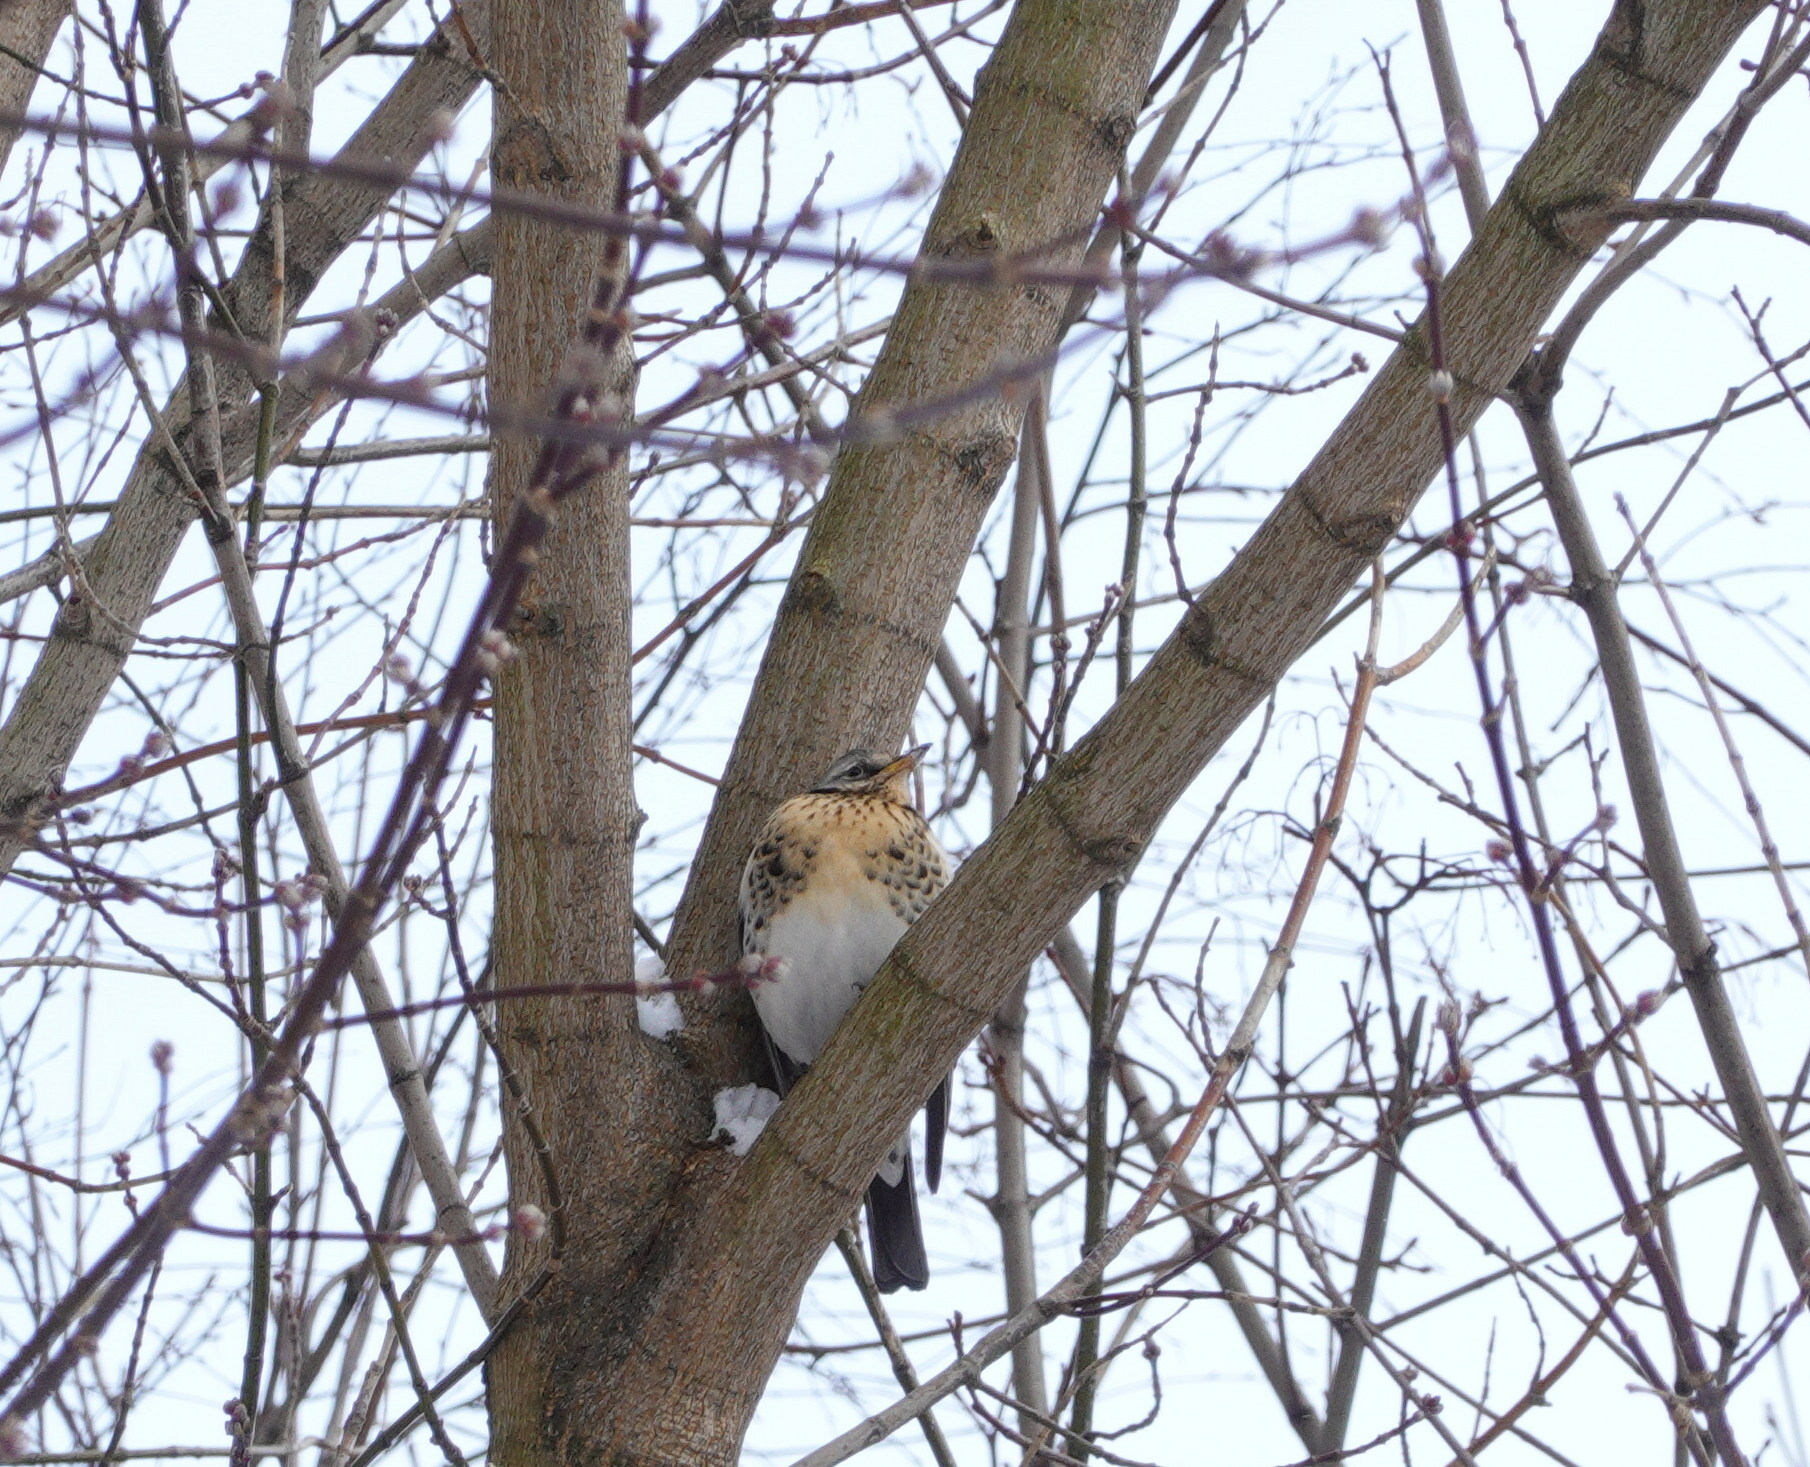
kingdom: Animalia
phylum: Chordata
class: Aves
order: Passeriformes
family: Turdidae
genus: Turdus
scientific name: Turdus pilaris
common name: Fieldfare
